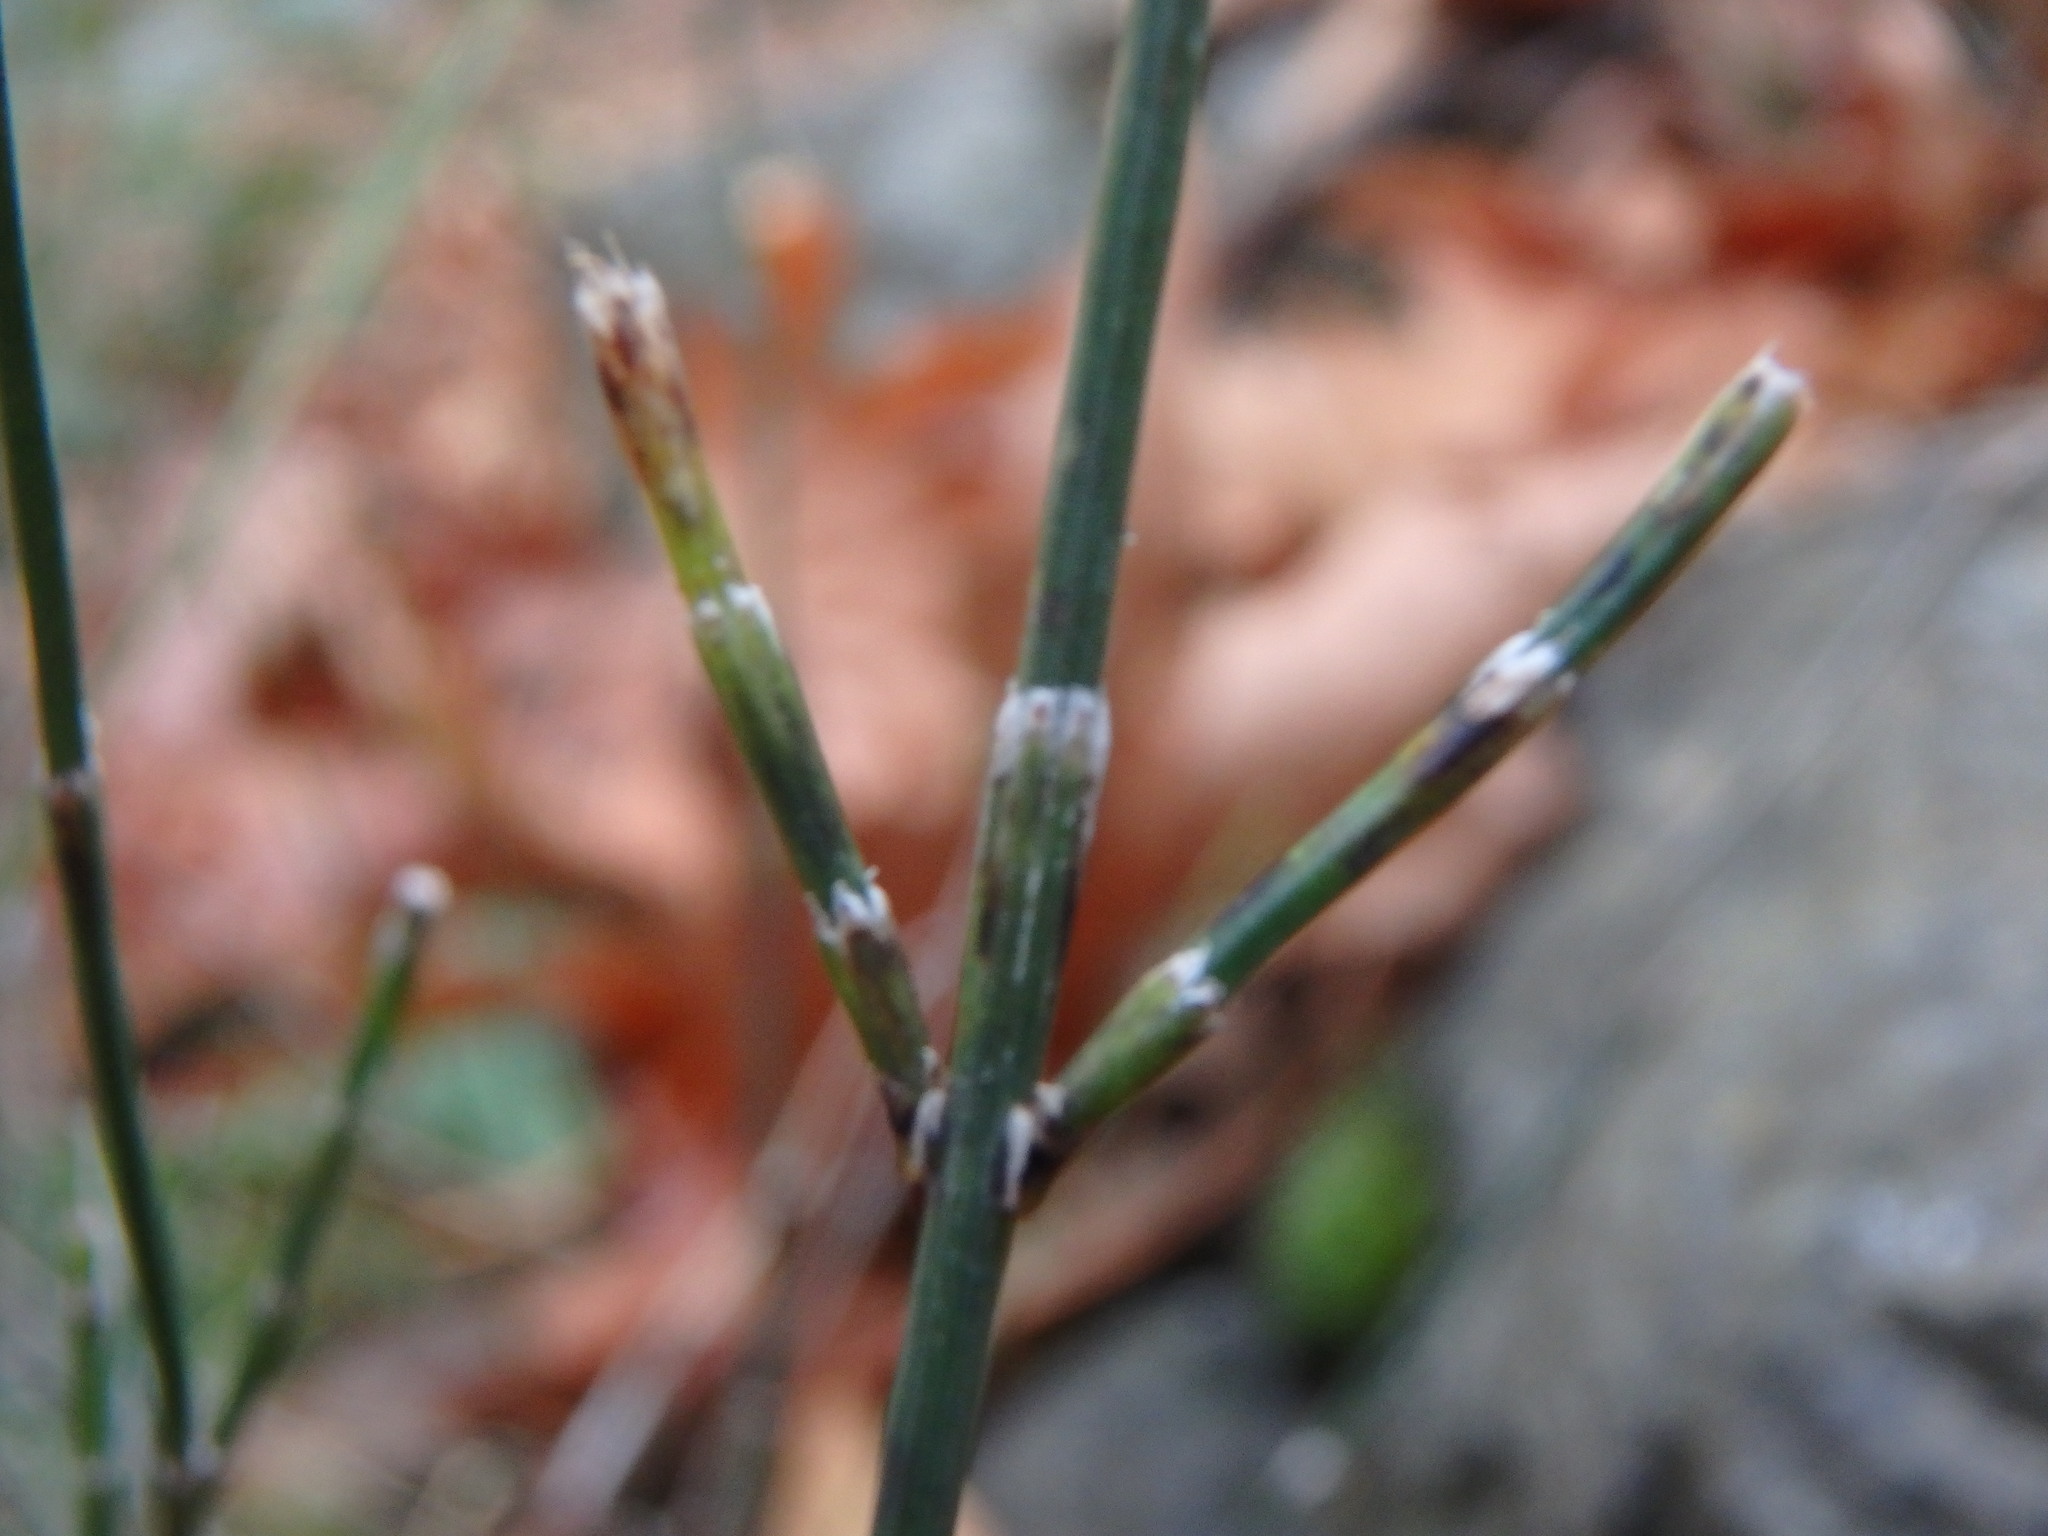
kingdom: Plantae
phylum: Tracheophyta
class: Polypodiopsida
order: Equisetales
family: Equisetaceae
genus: Equisetum
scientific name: Equisetum ramosissimum
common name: Branched horsetail
